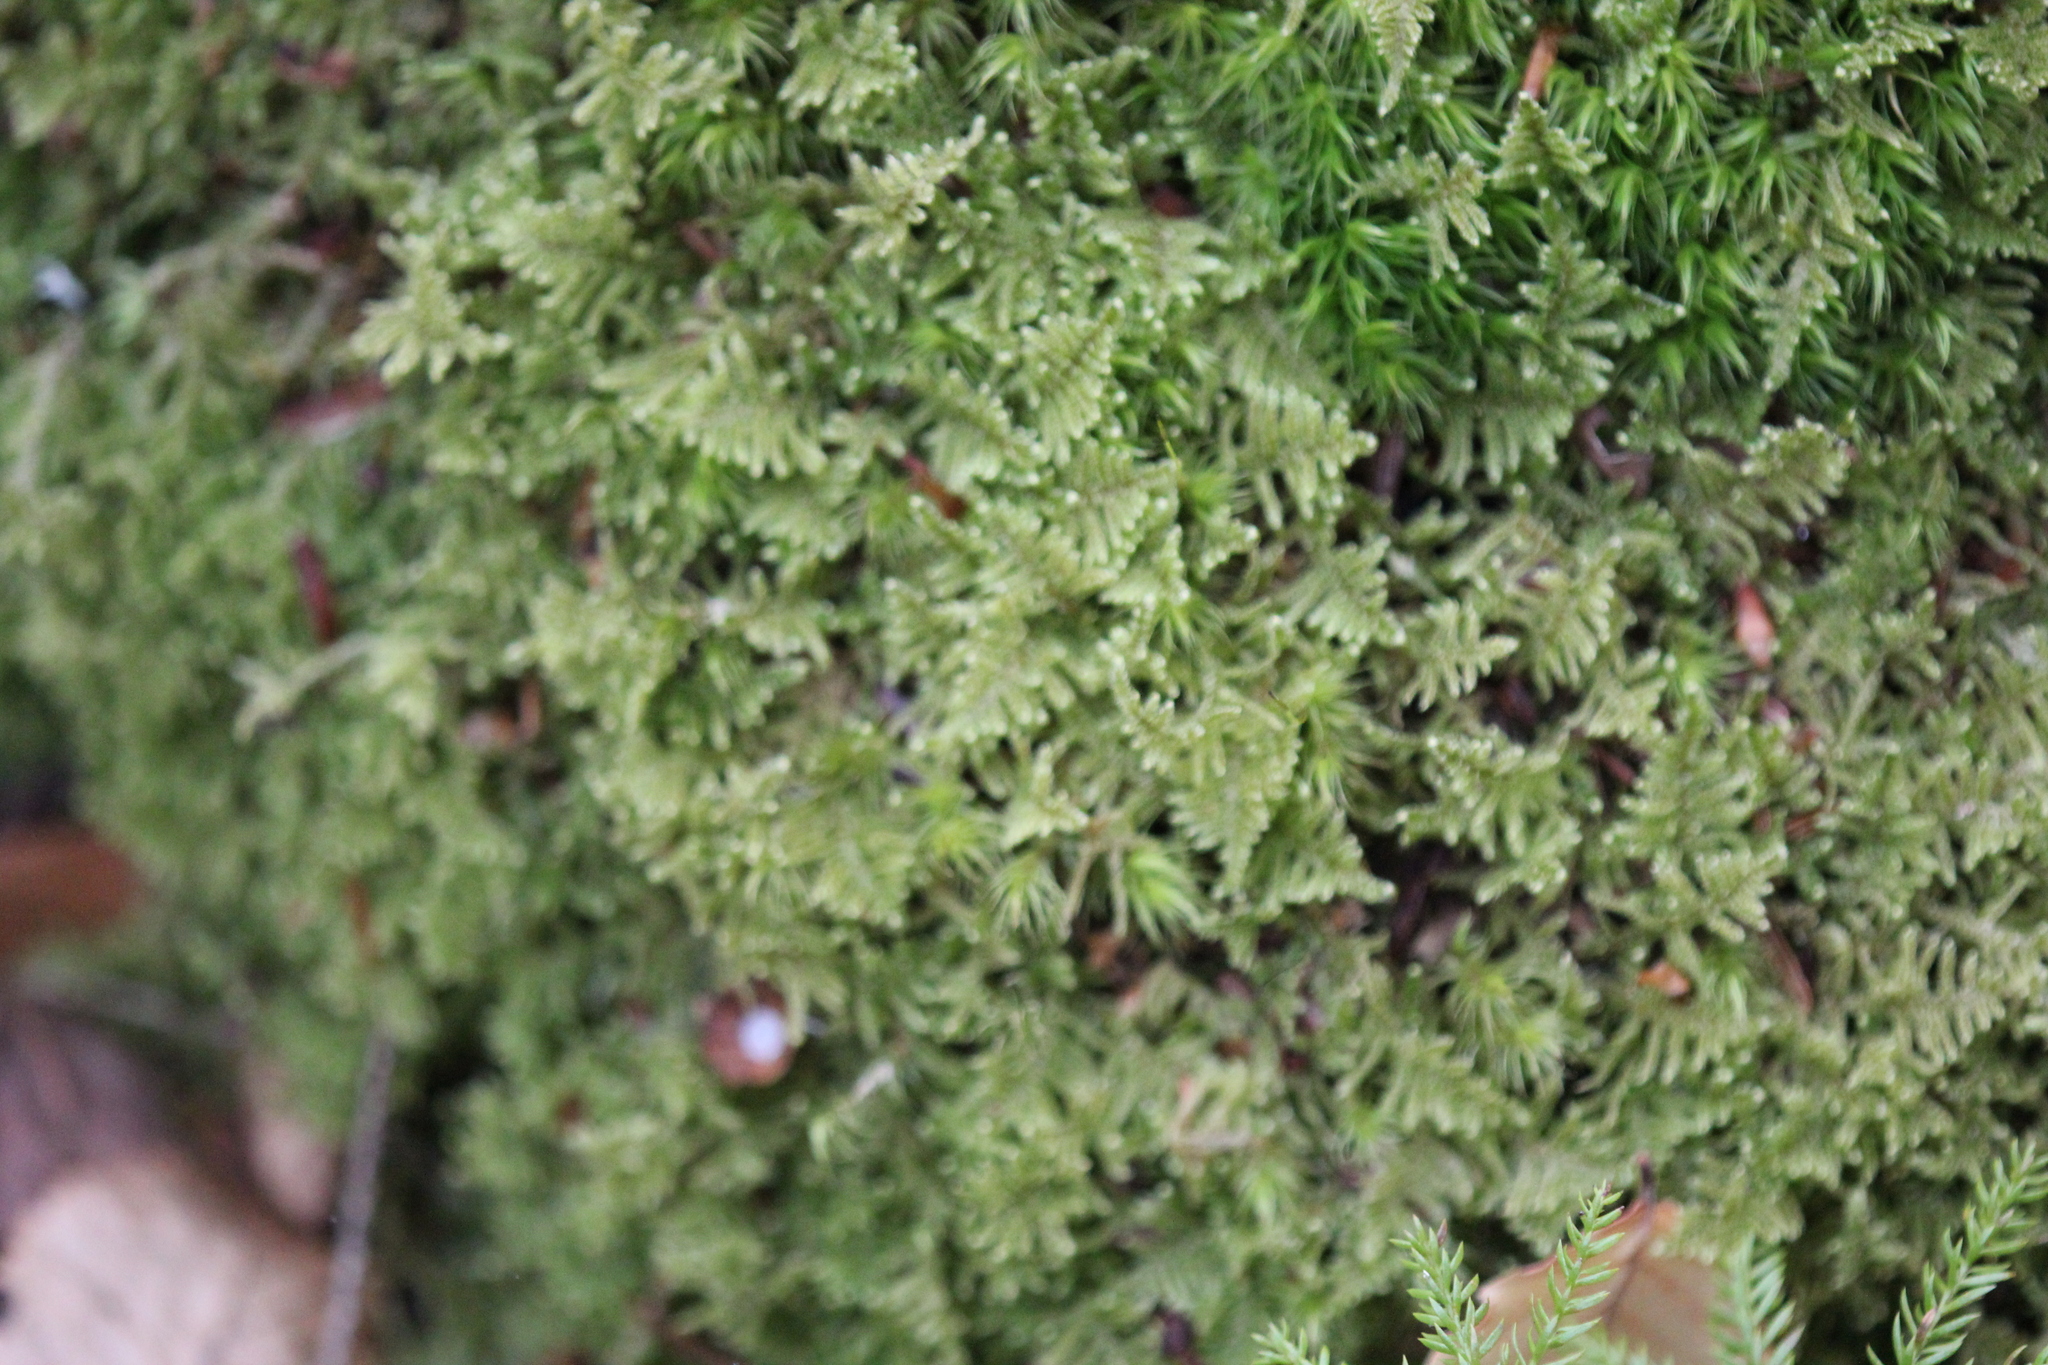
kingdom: Plantae
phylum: Bryophyta
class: Bryopsida
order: Hypnales
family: Callicladiaceae
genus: Callicladium
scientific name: Callicladium imponens
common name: Brocade moss
